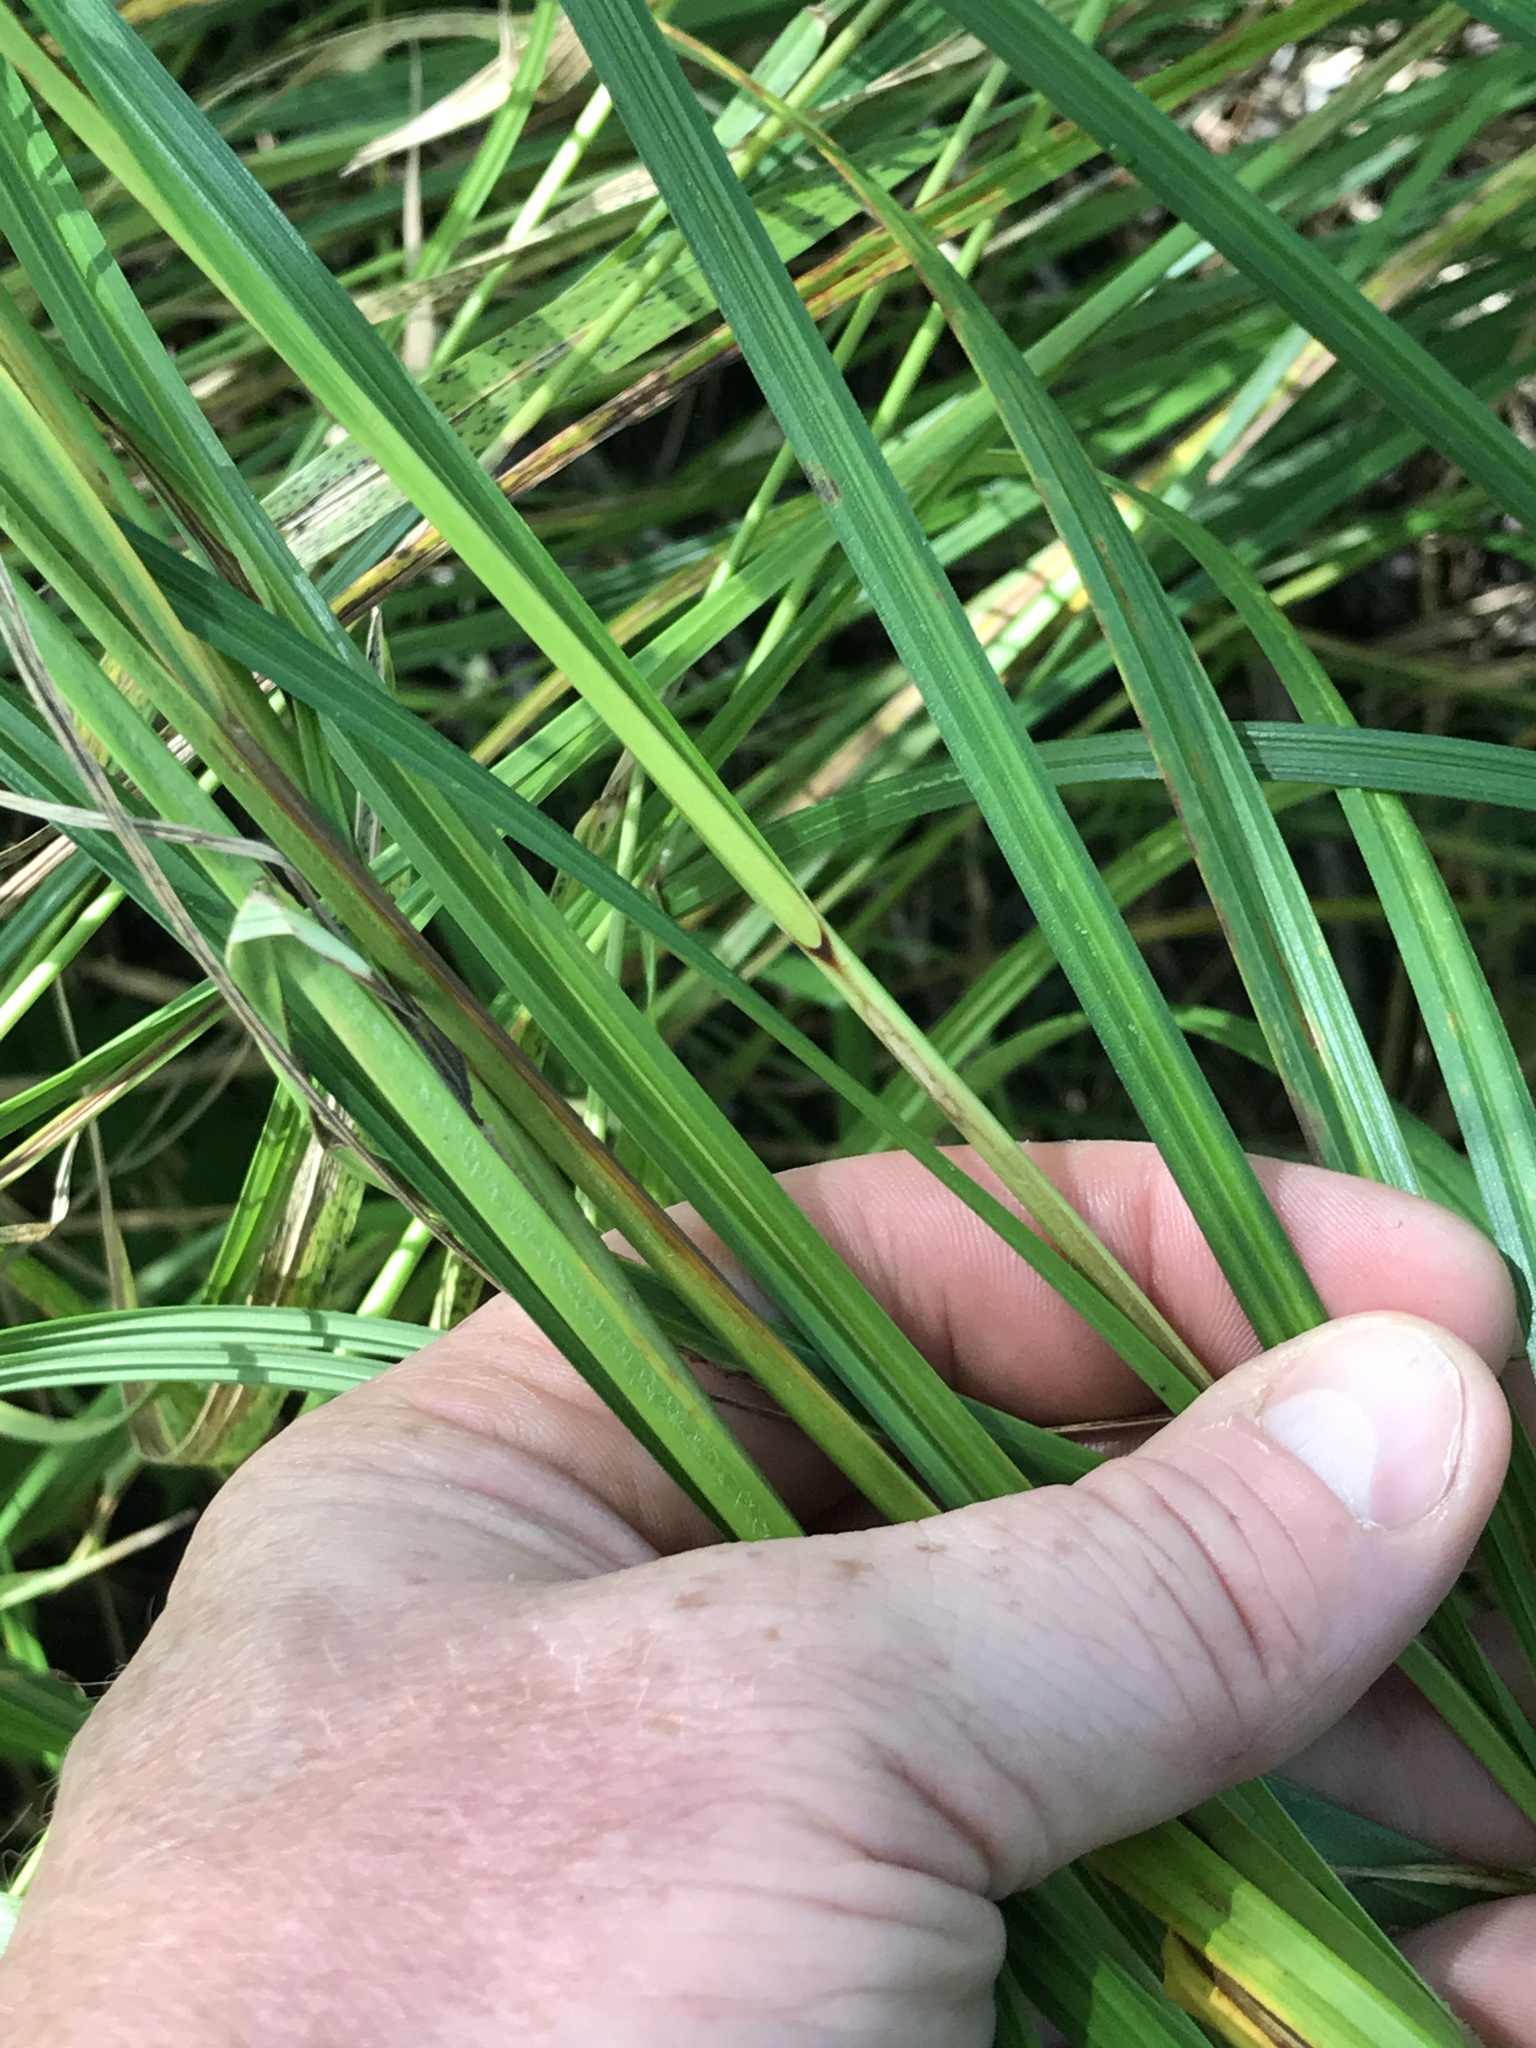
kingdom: Plantae
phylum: Tracheophyta
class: Liliopsida
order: Poales
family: Cyperaceae
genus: Carex
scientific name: Carex trichocarpa
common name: Hairy-fruited lake sedge
